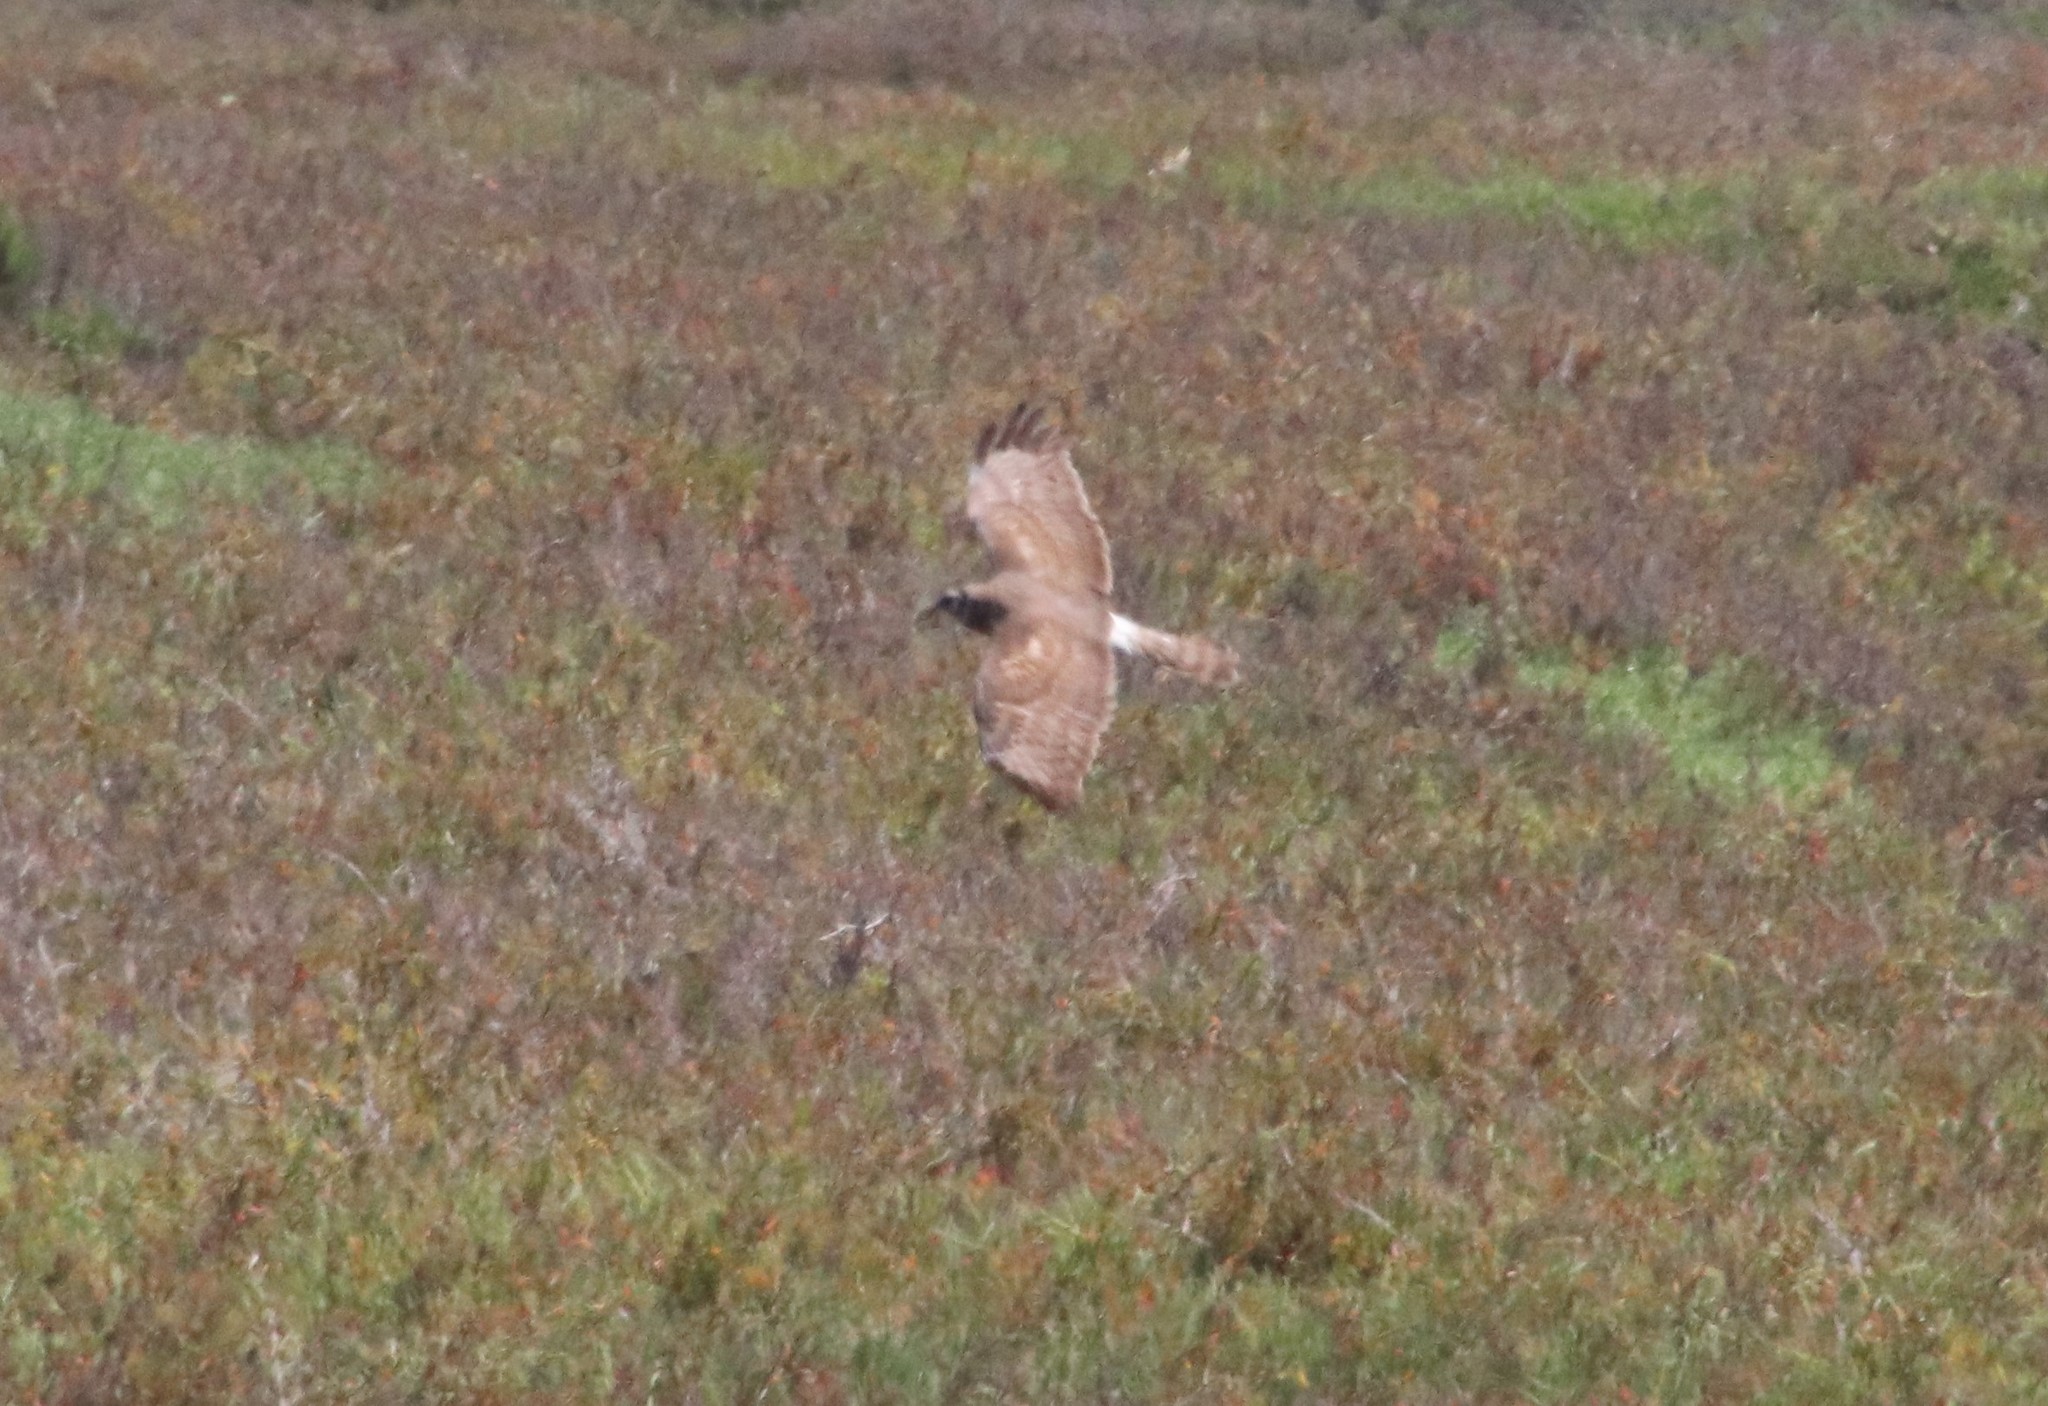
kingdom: Animalia
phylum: Chordata
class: Aves
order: Accipitriformes
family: Accipitridae
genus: Circus
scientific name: Circus cyaneus
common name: Hen harrier
